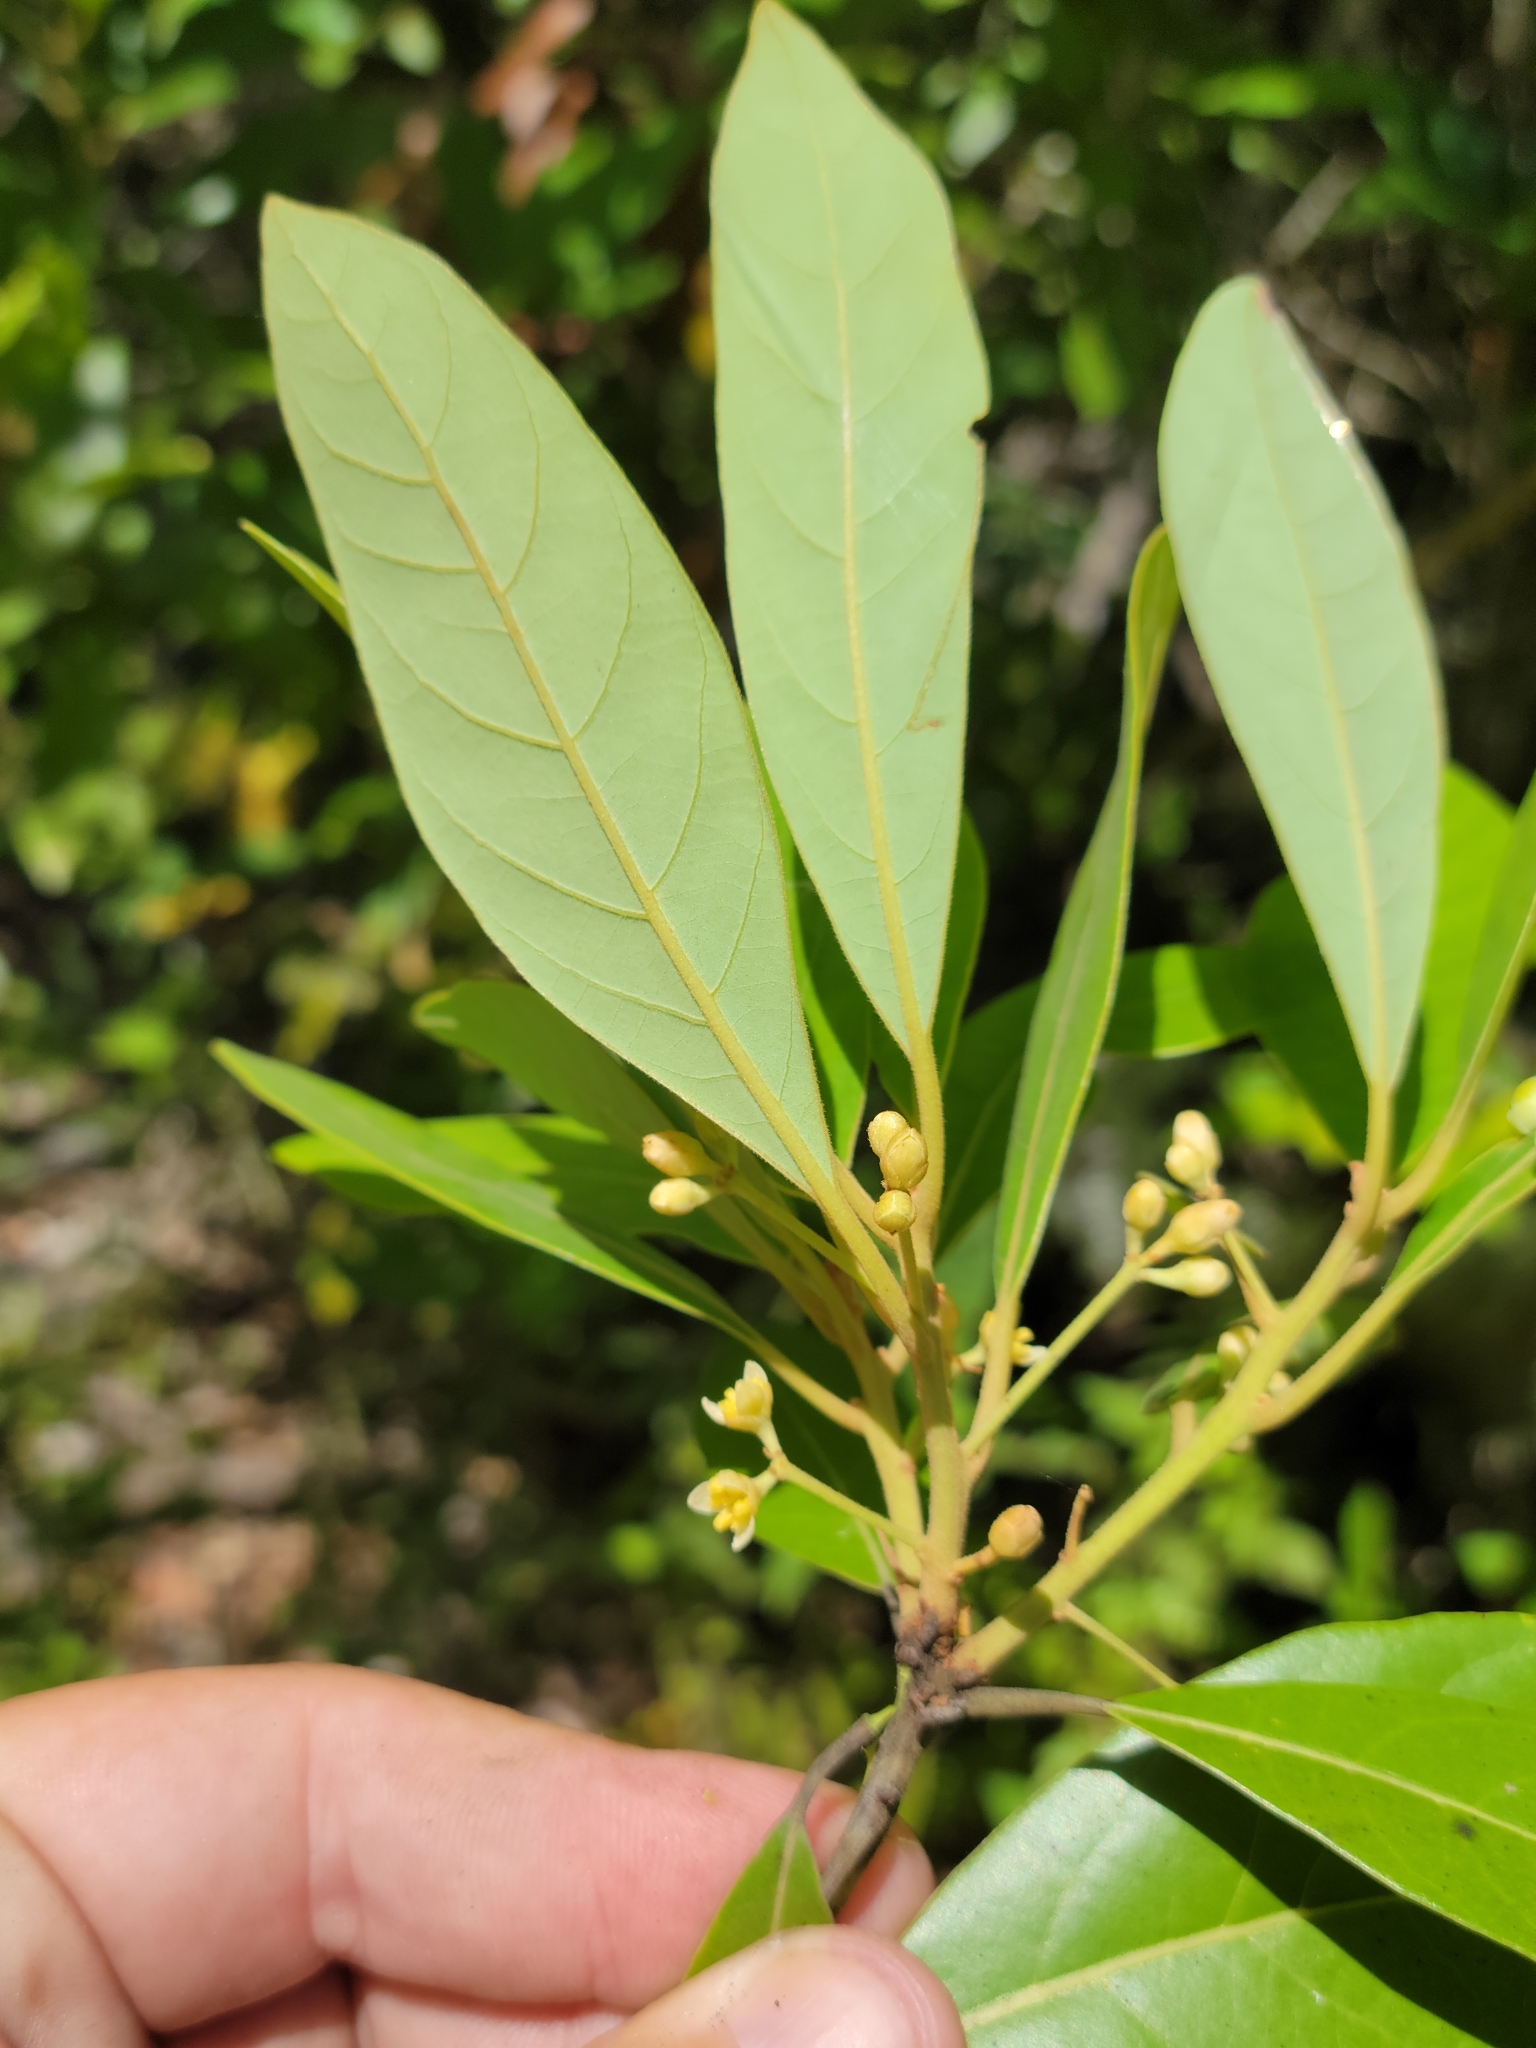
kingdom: Plantae
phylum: Tracheophyta
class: Magnoliopsida
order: Laurales
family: Lauraceae
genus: Persea
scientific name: Persea palustris
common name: Swampbay
